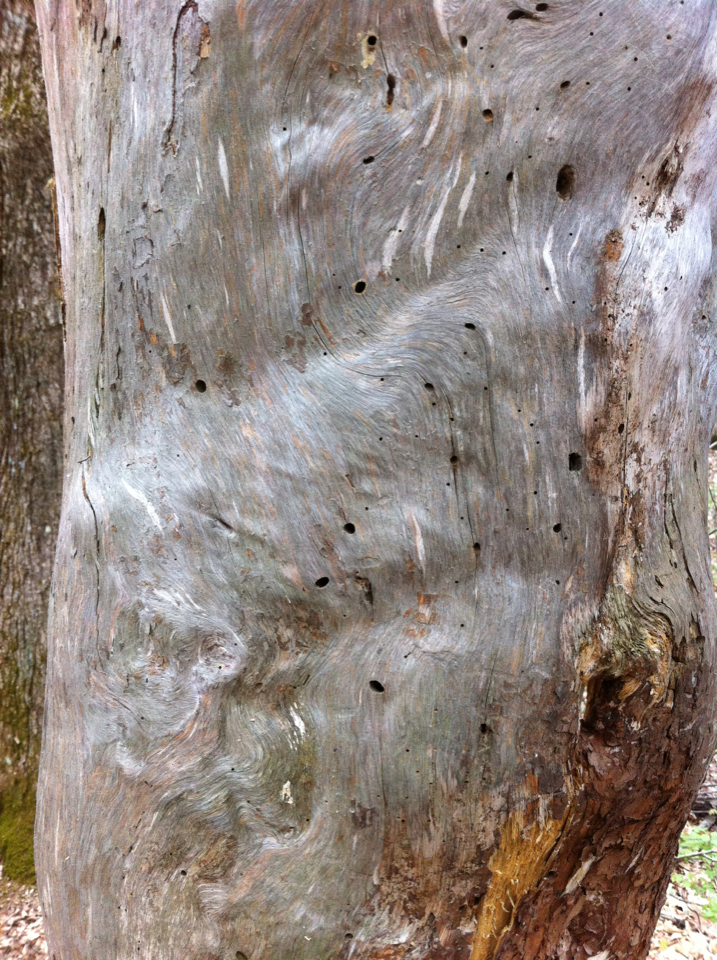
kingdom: Plantae
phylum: Tracheophyta
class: Pinopsida
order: Pinales
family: Pinaceae
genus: Pinus
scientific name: Pinus strobus
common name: Weymouth pine
